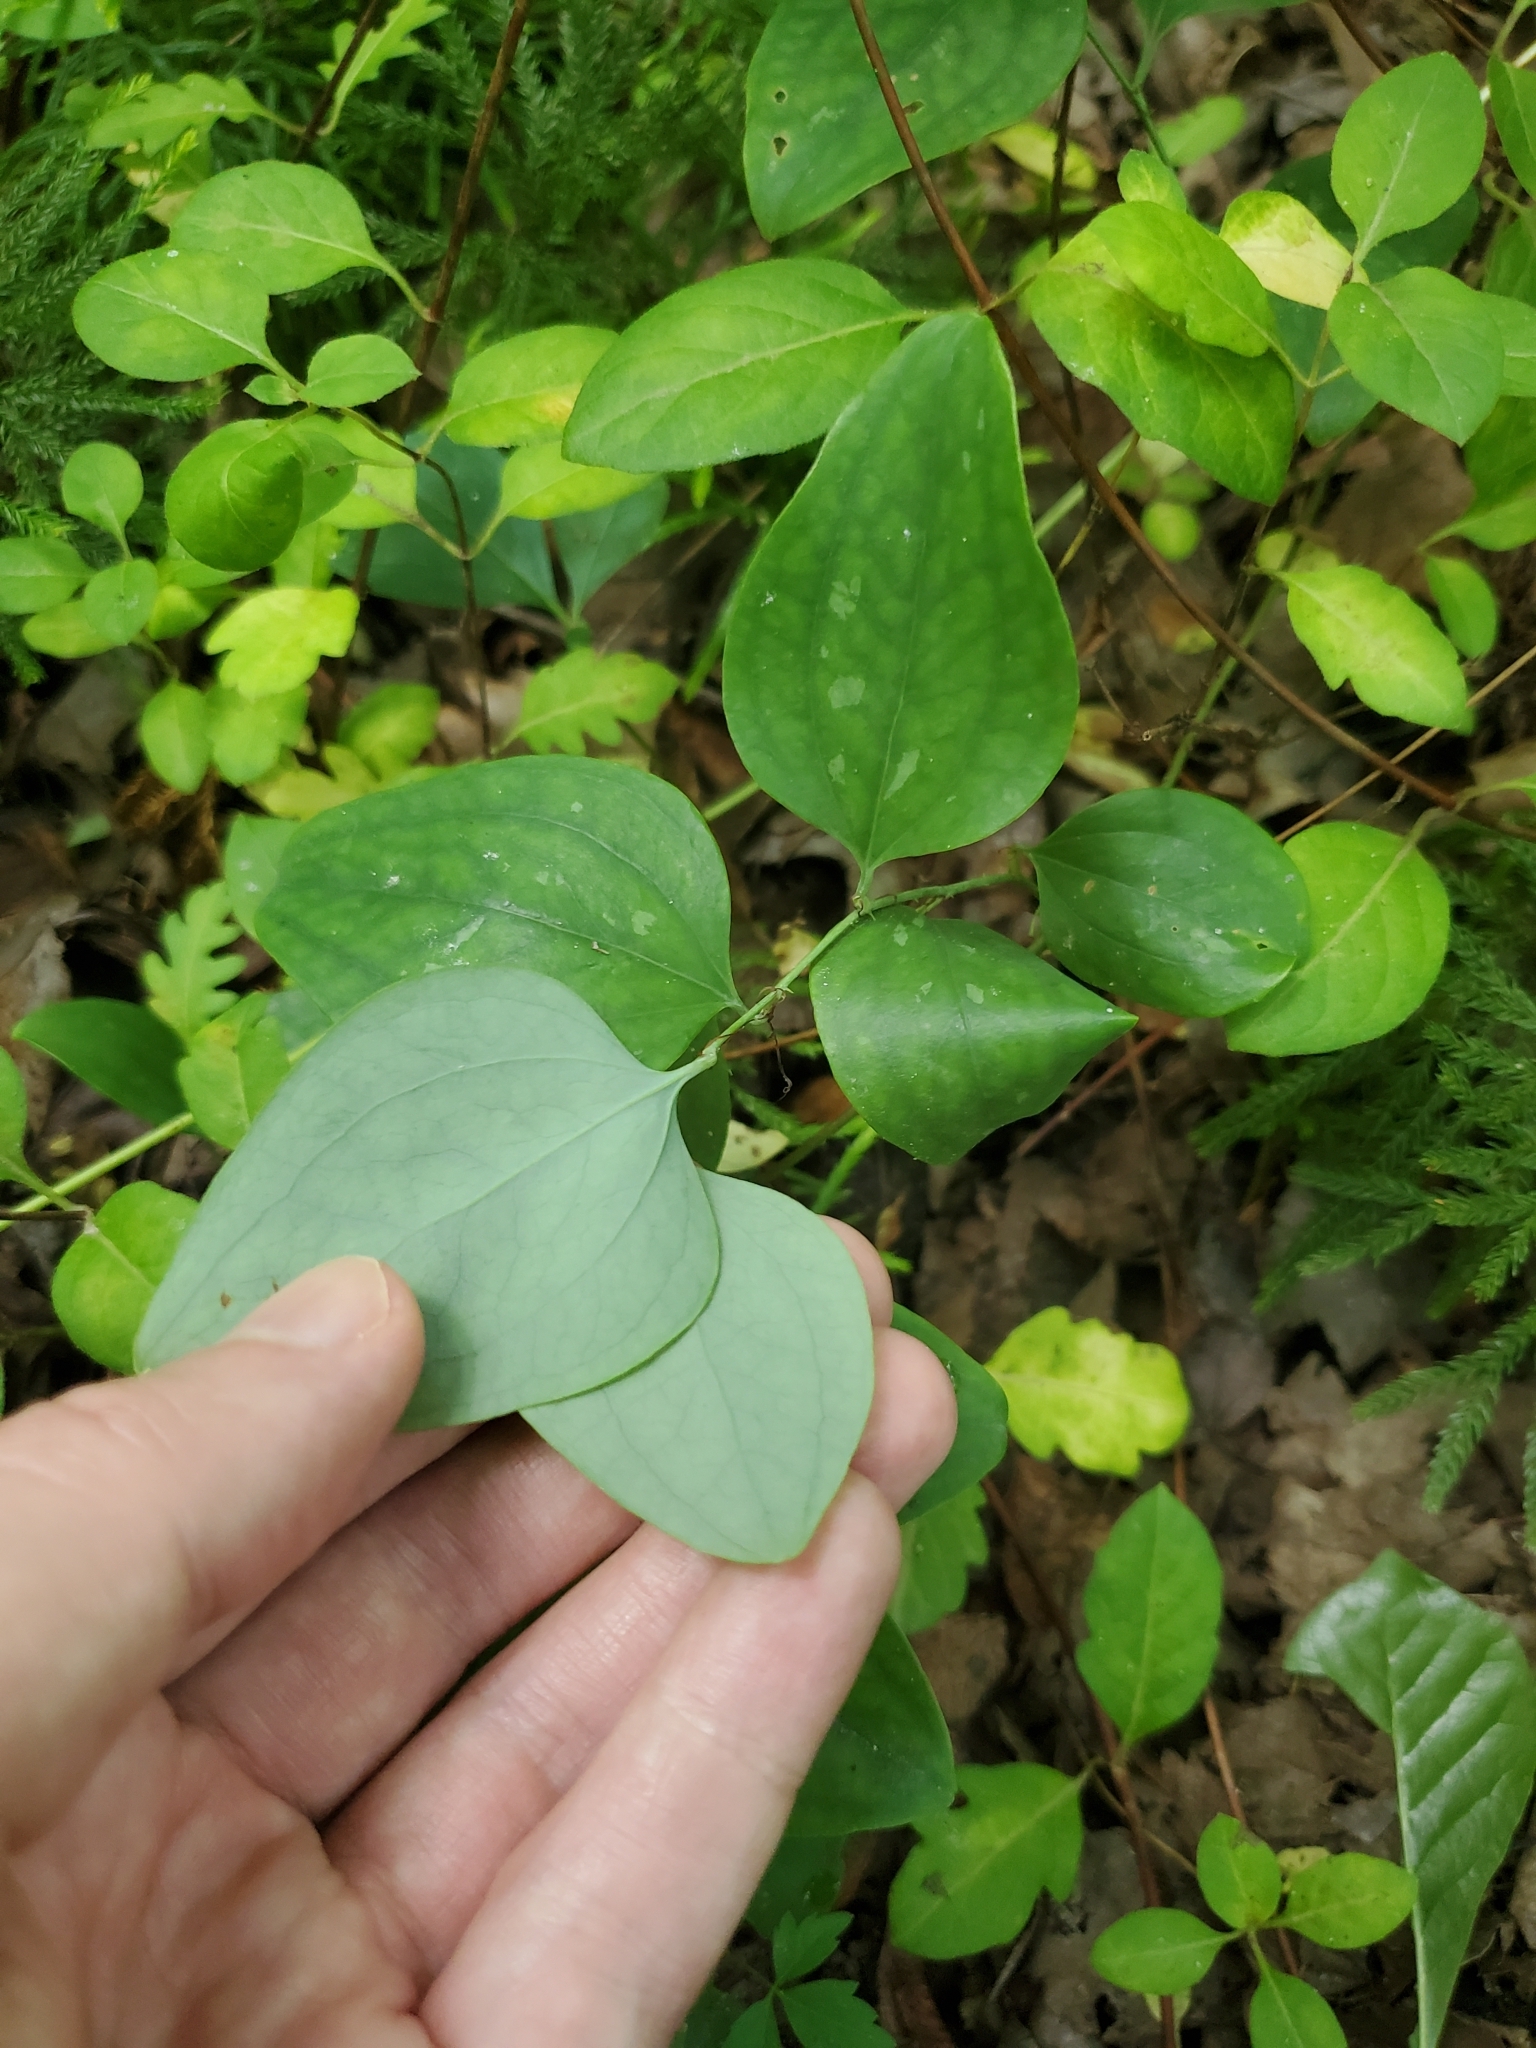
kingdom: Plantae
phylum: Tracheophyta
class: Liliopsida
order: Liliales
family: Smilacaceae
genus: Smilax
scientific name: Smilax glauca
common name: Cat greenbrier
